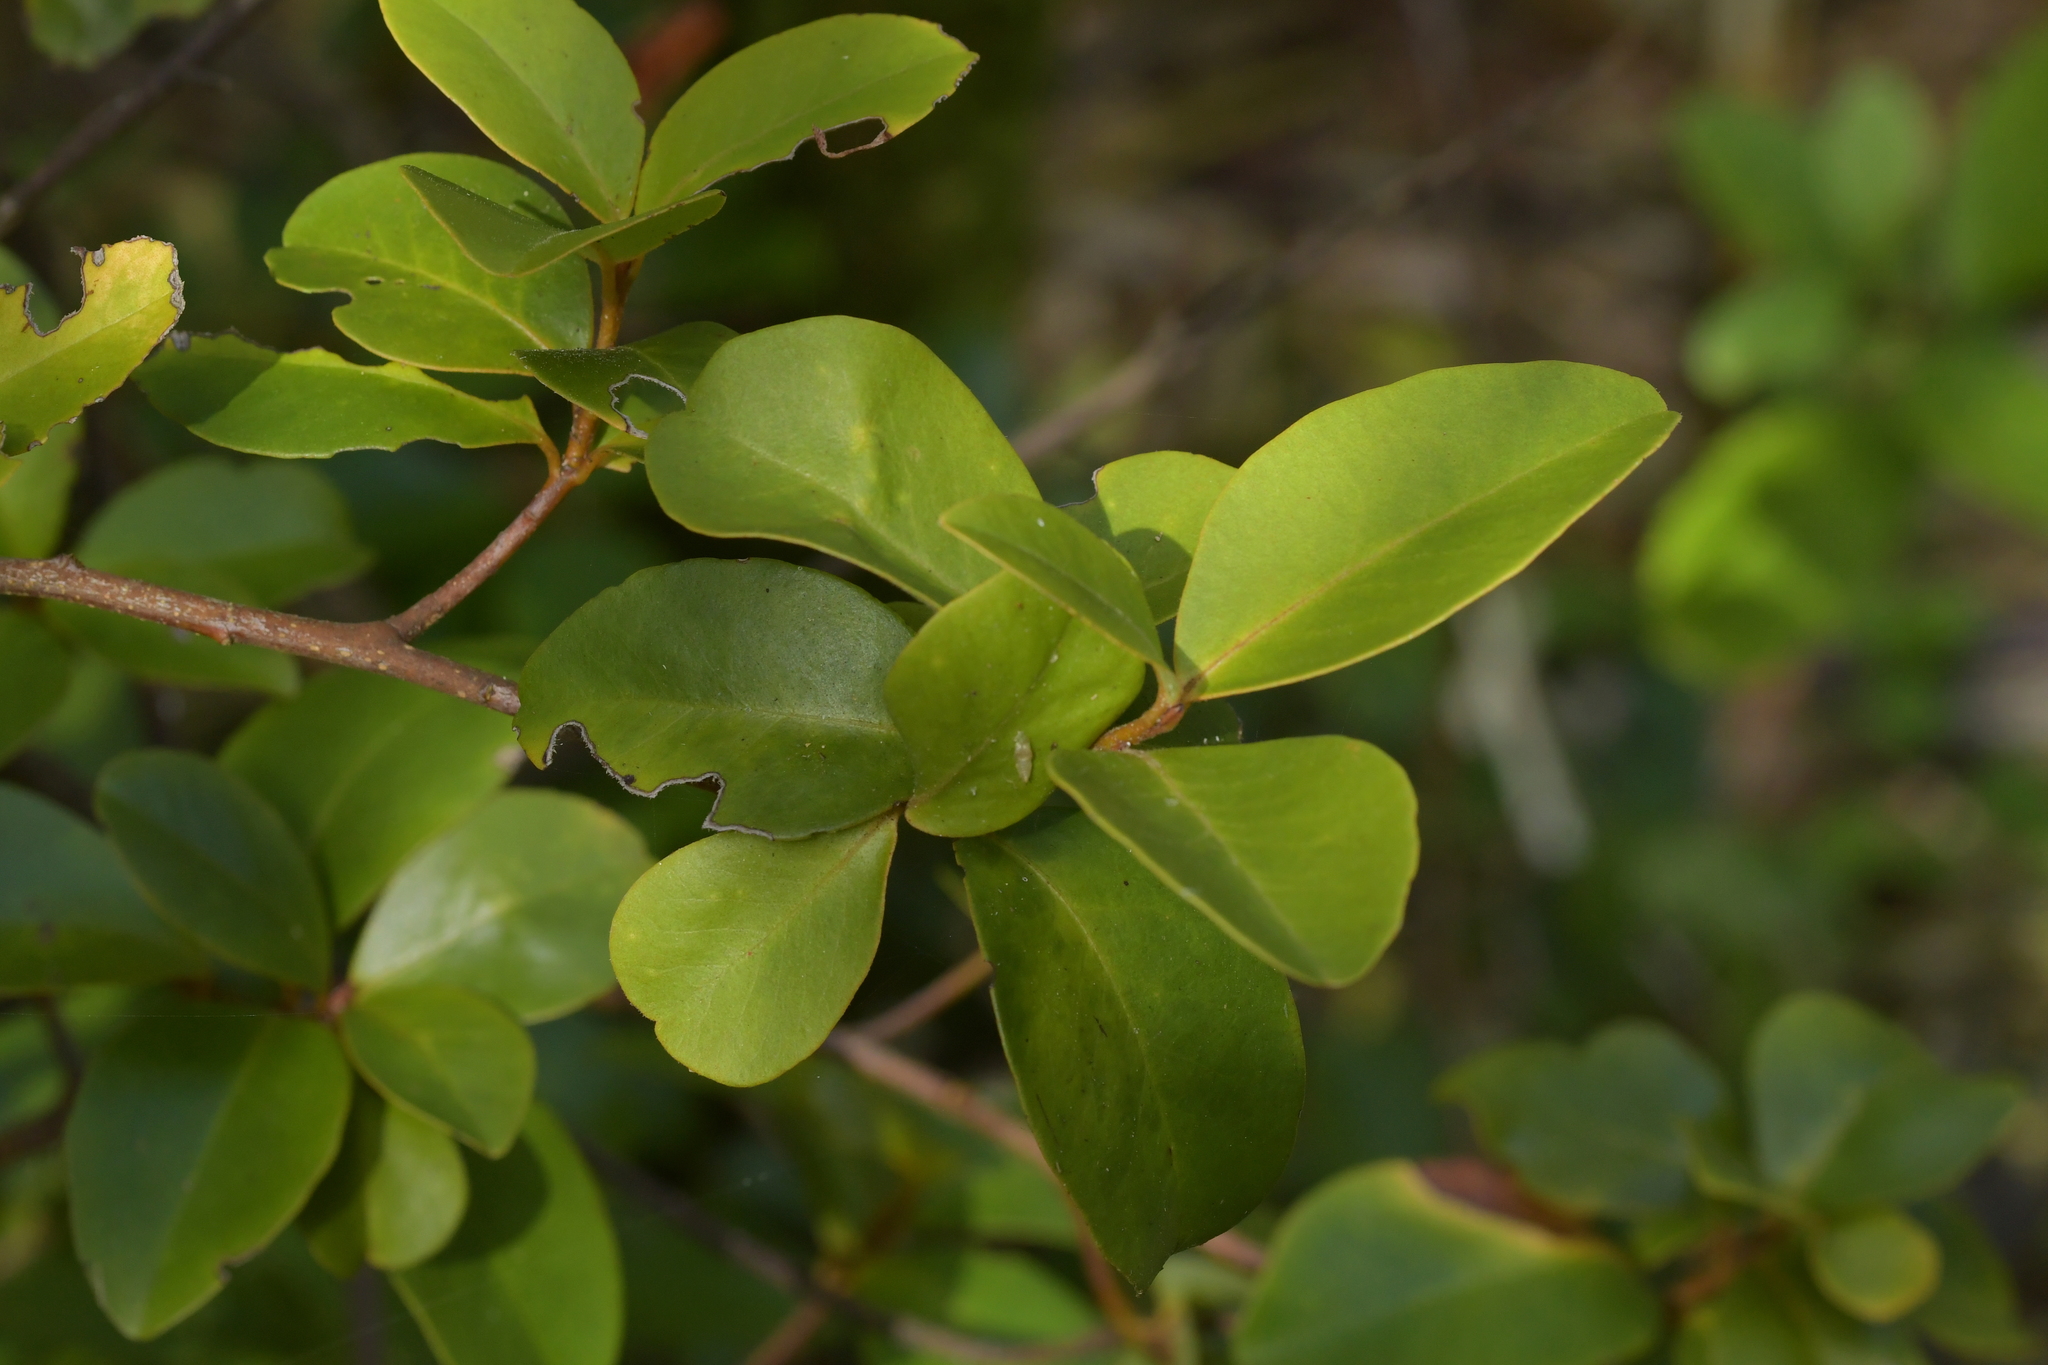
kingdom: Plantae
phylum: Tracheophyta
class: Magnoliopsida
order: Ericales
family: Primulaceae
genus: Myrsine
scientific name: Myrsine chathamica
